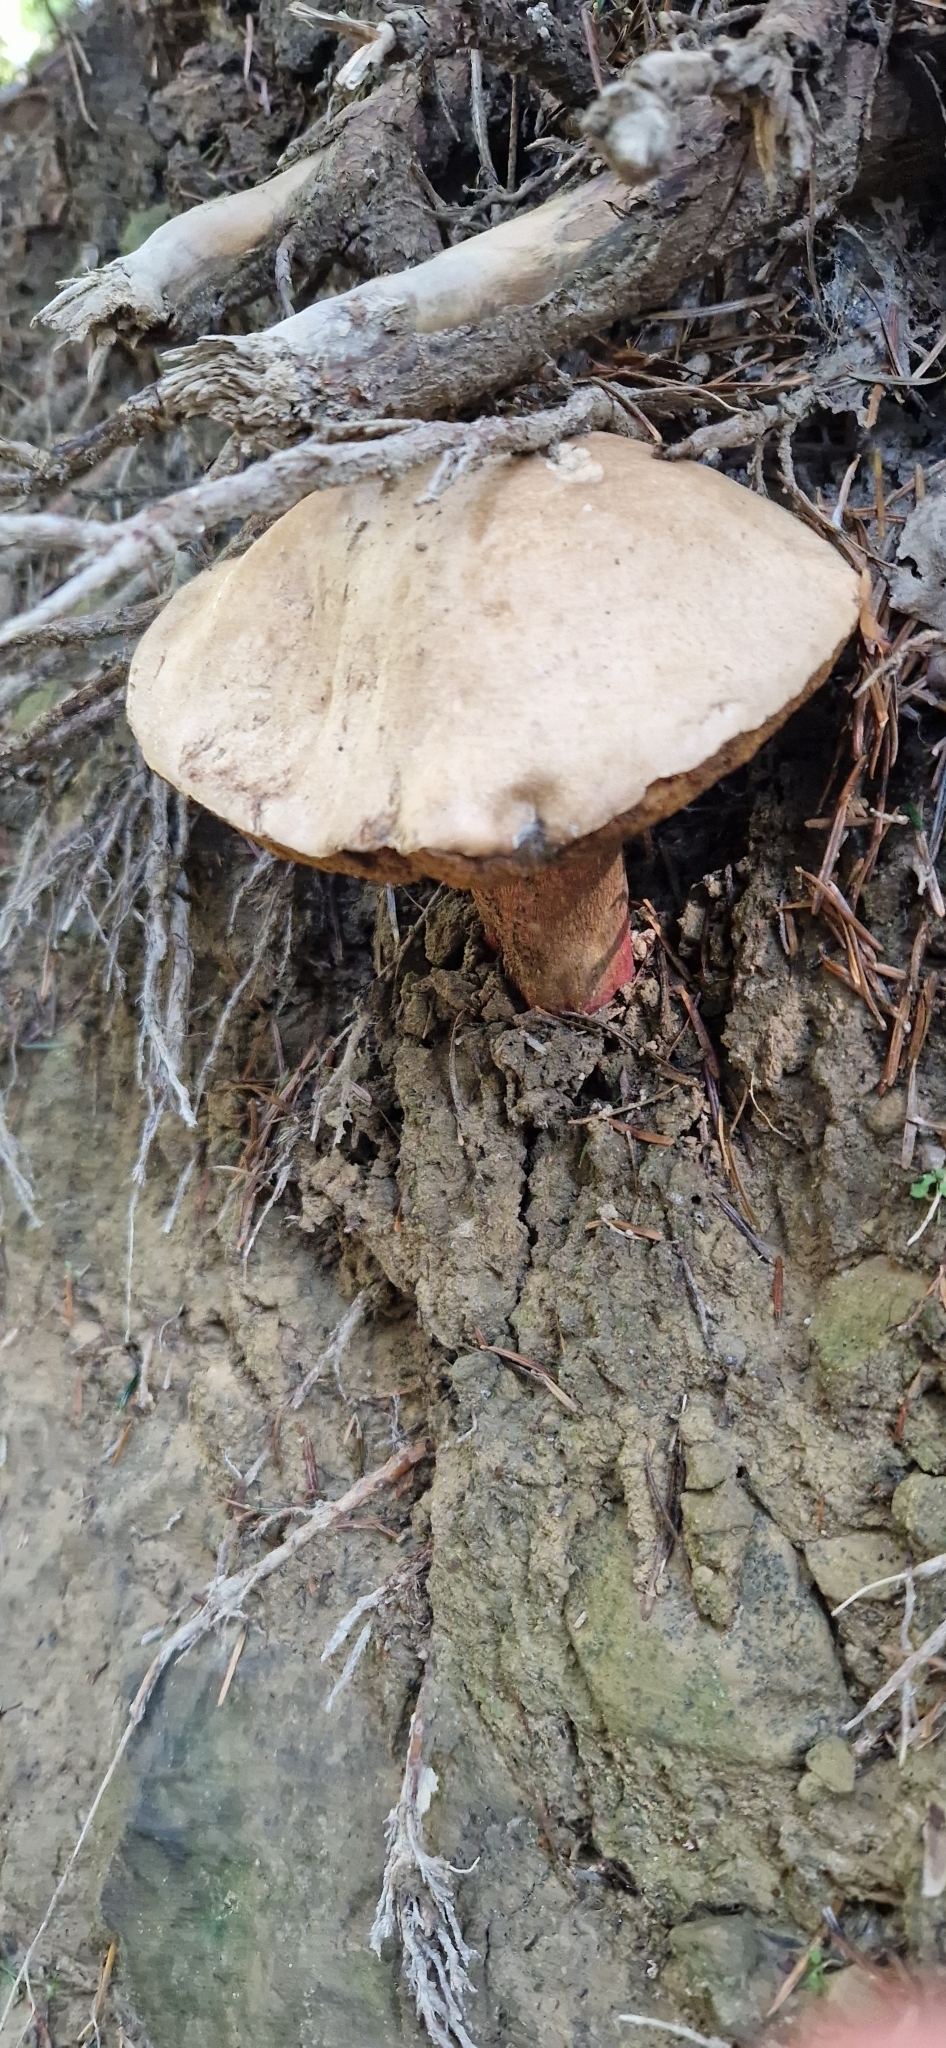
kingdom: Fungi
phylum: Basidiomycota
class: Agaricomycetes
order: Boletales
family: Boletaceae
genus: Caloboletus
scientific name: Caloboletus calopus
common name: Bitter beech bolete
